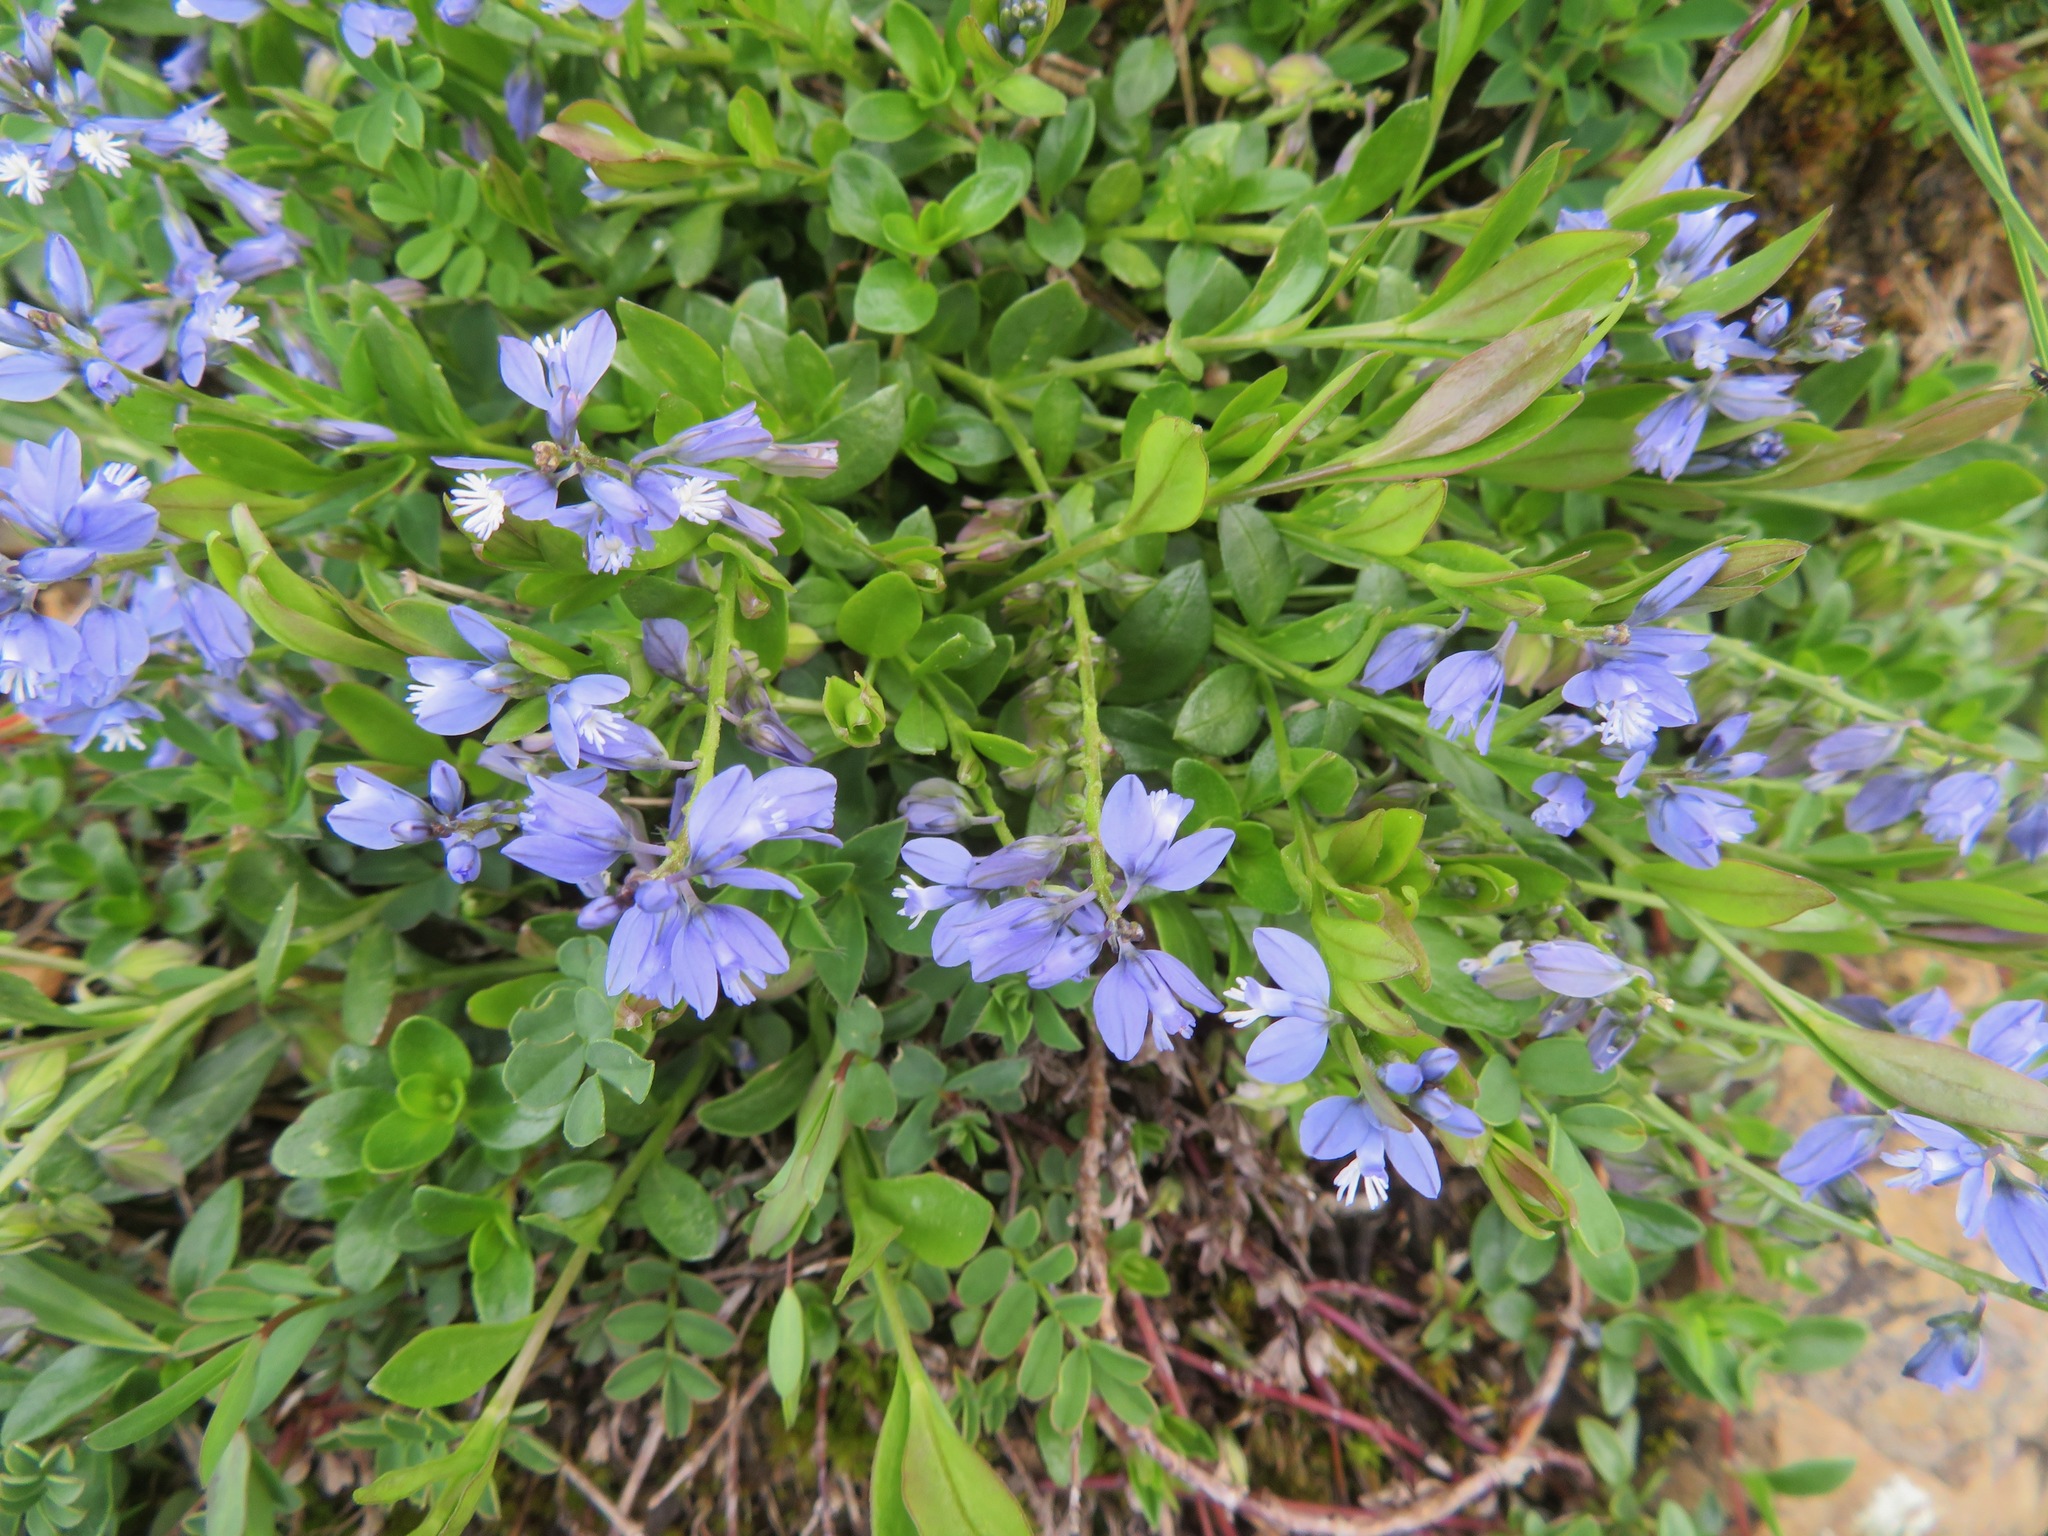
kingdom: Plantae
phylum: Tracheophyta
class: Magnoliopsida
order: Fabales
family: Polygalaceae
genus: Polygala
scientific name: Polygala alpestris
